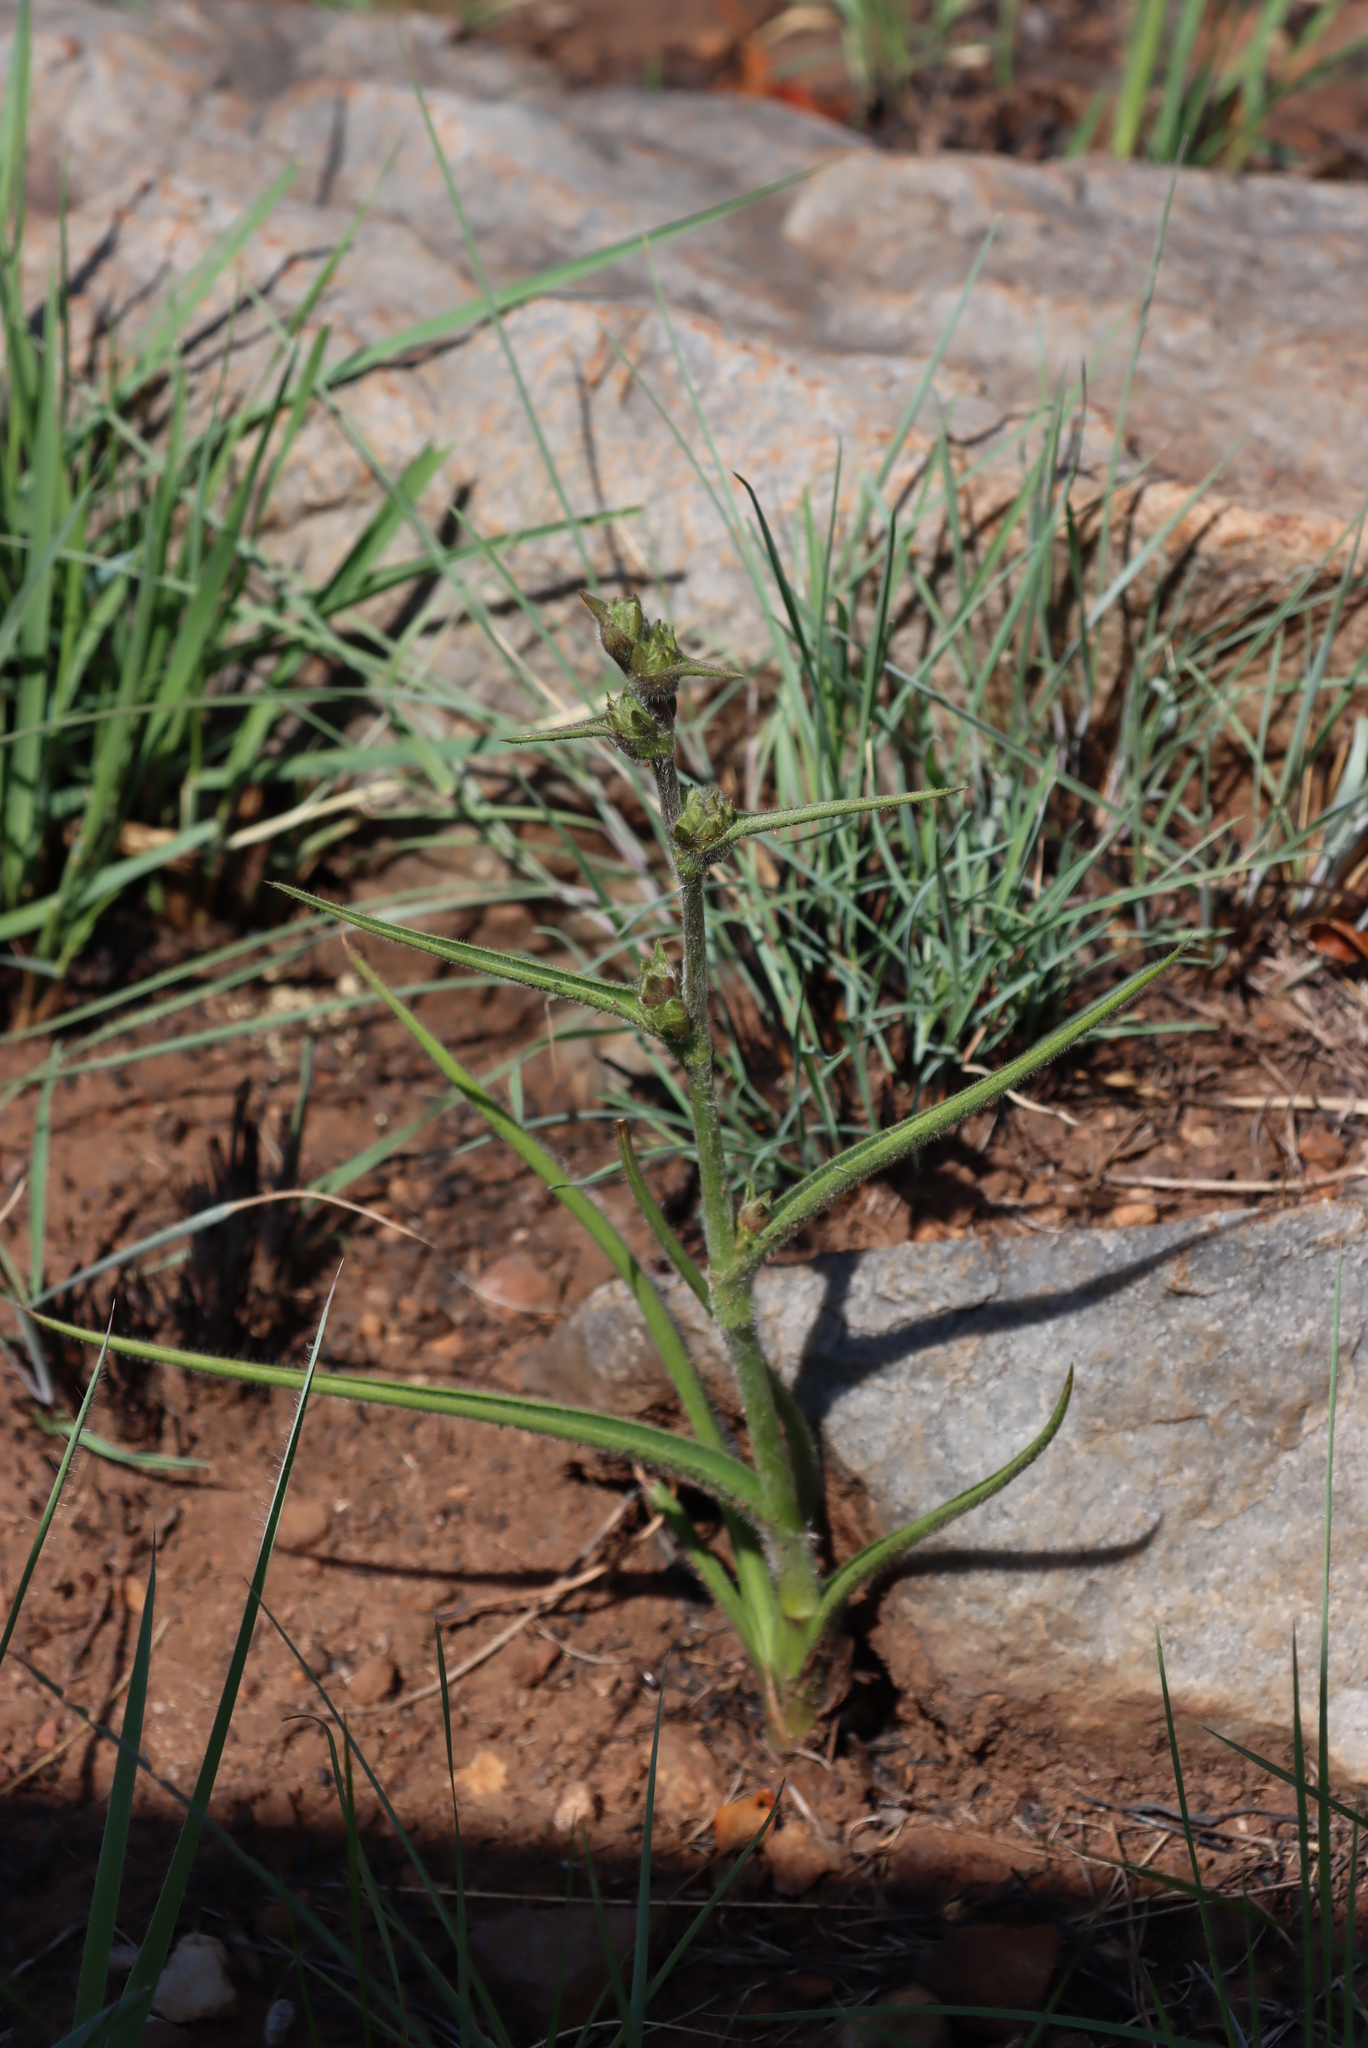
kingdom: Plantae
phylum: Tracheophyta
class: Liliopsida
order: Commelinales
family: Commelinaceae
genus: Cyanotis
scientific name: Cyanotis speciosa
